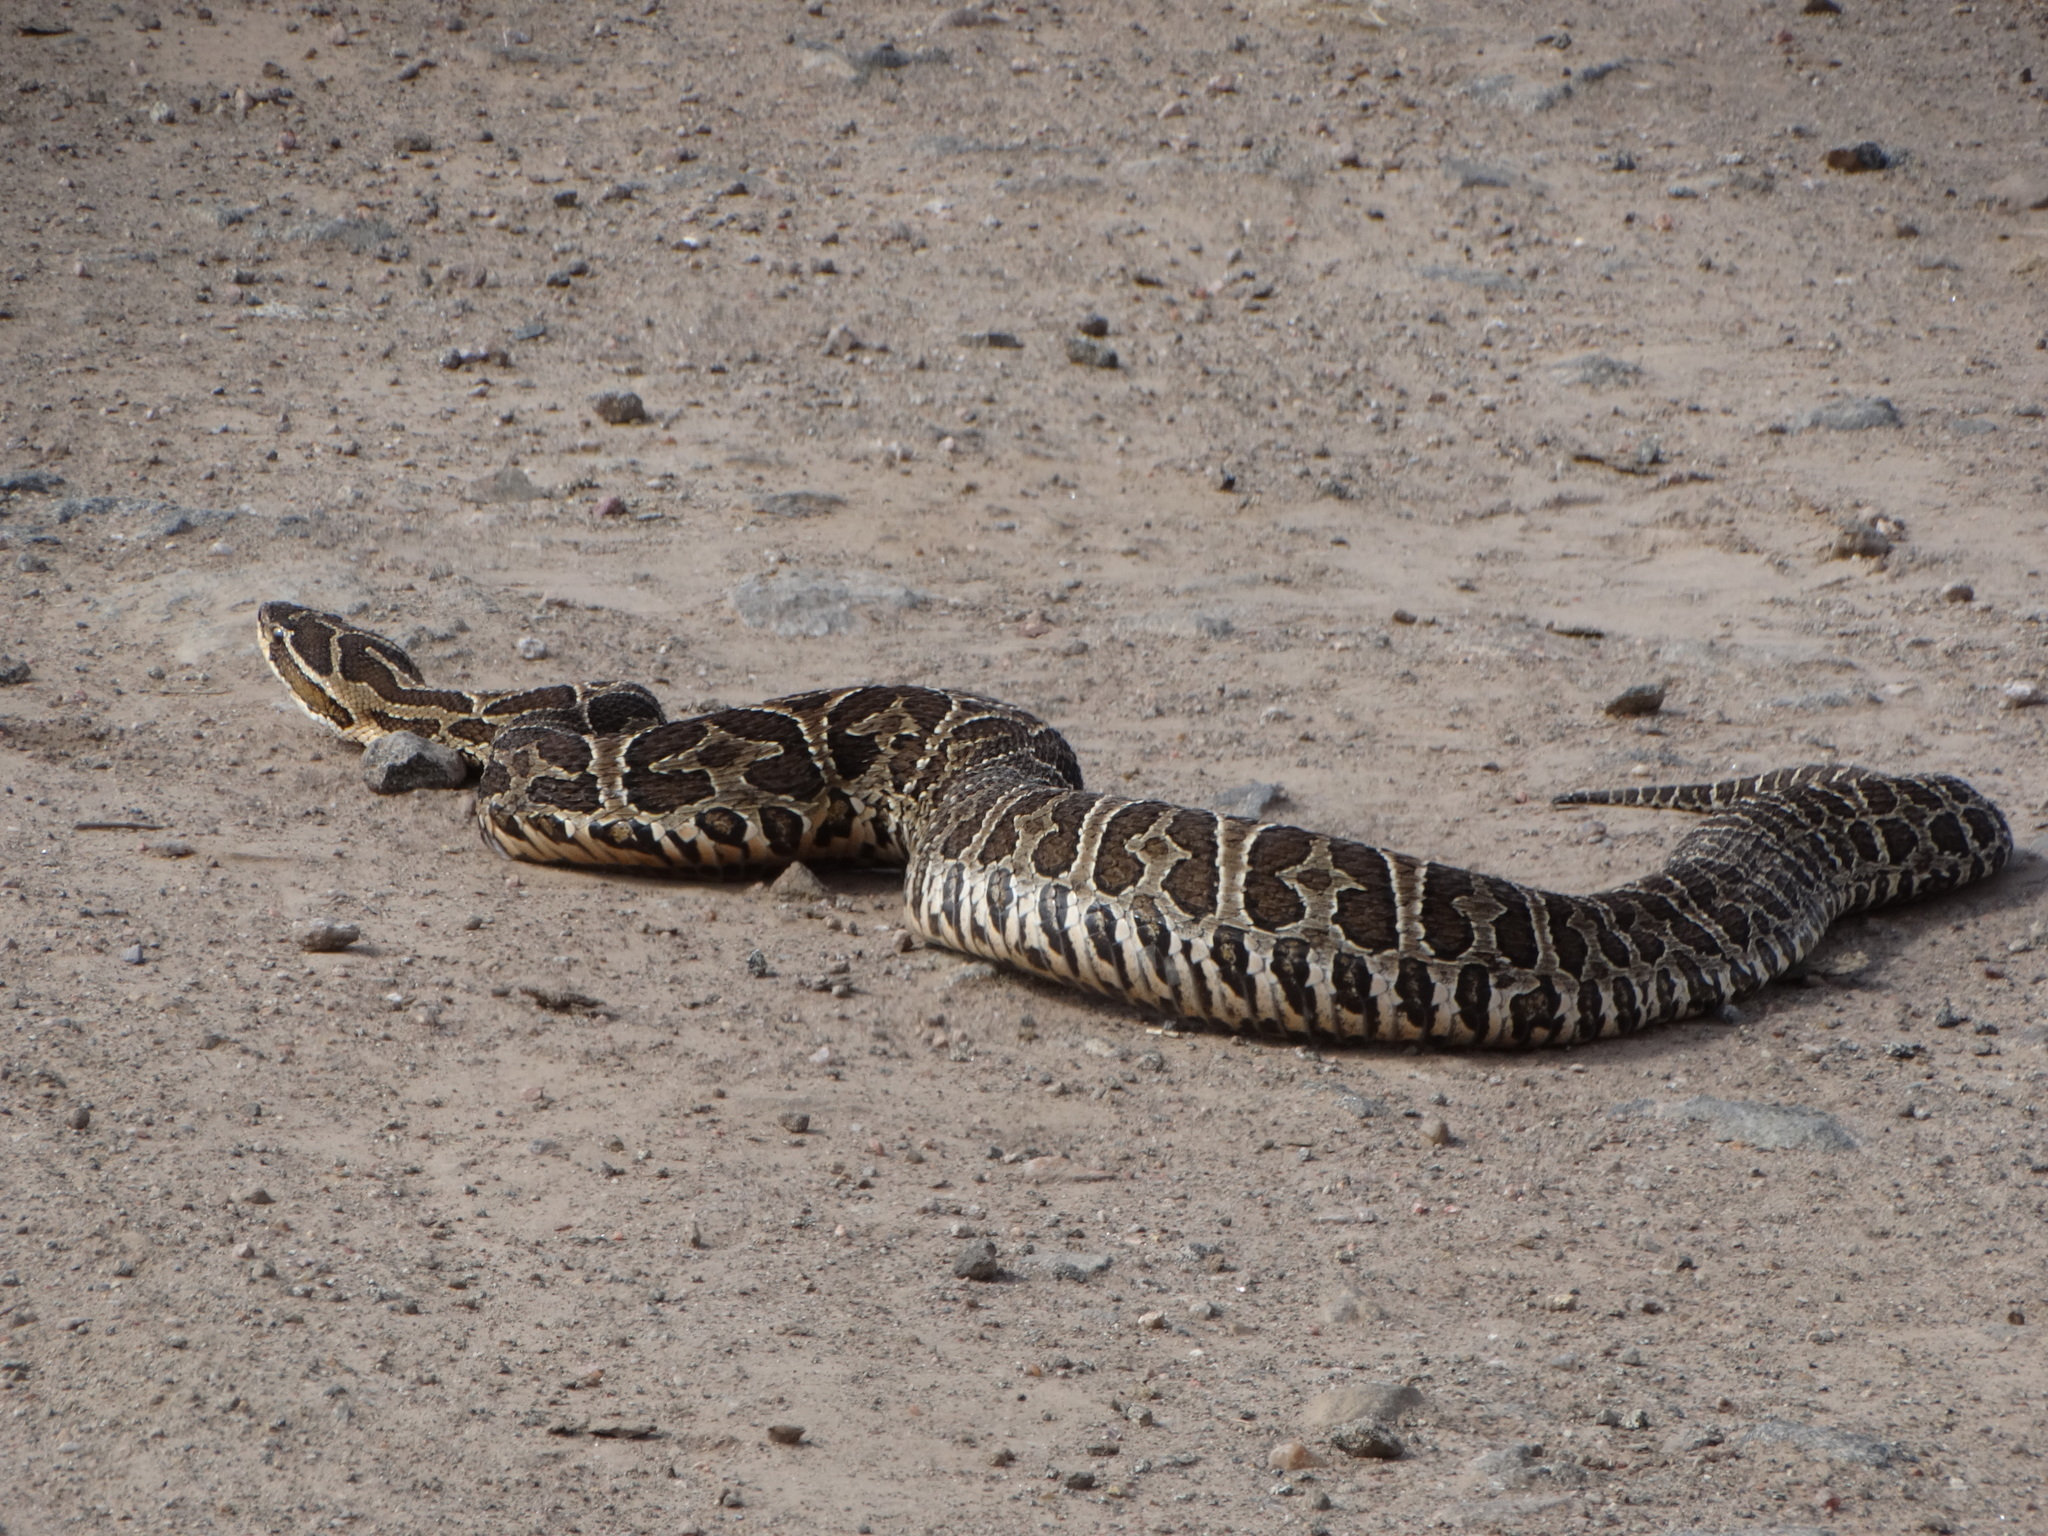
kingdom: Animalia
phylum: Chordata
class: Squamata
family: Viperidae
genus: Bothrops
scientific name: Bothrops alternatus
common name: Urutu
